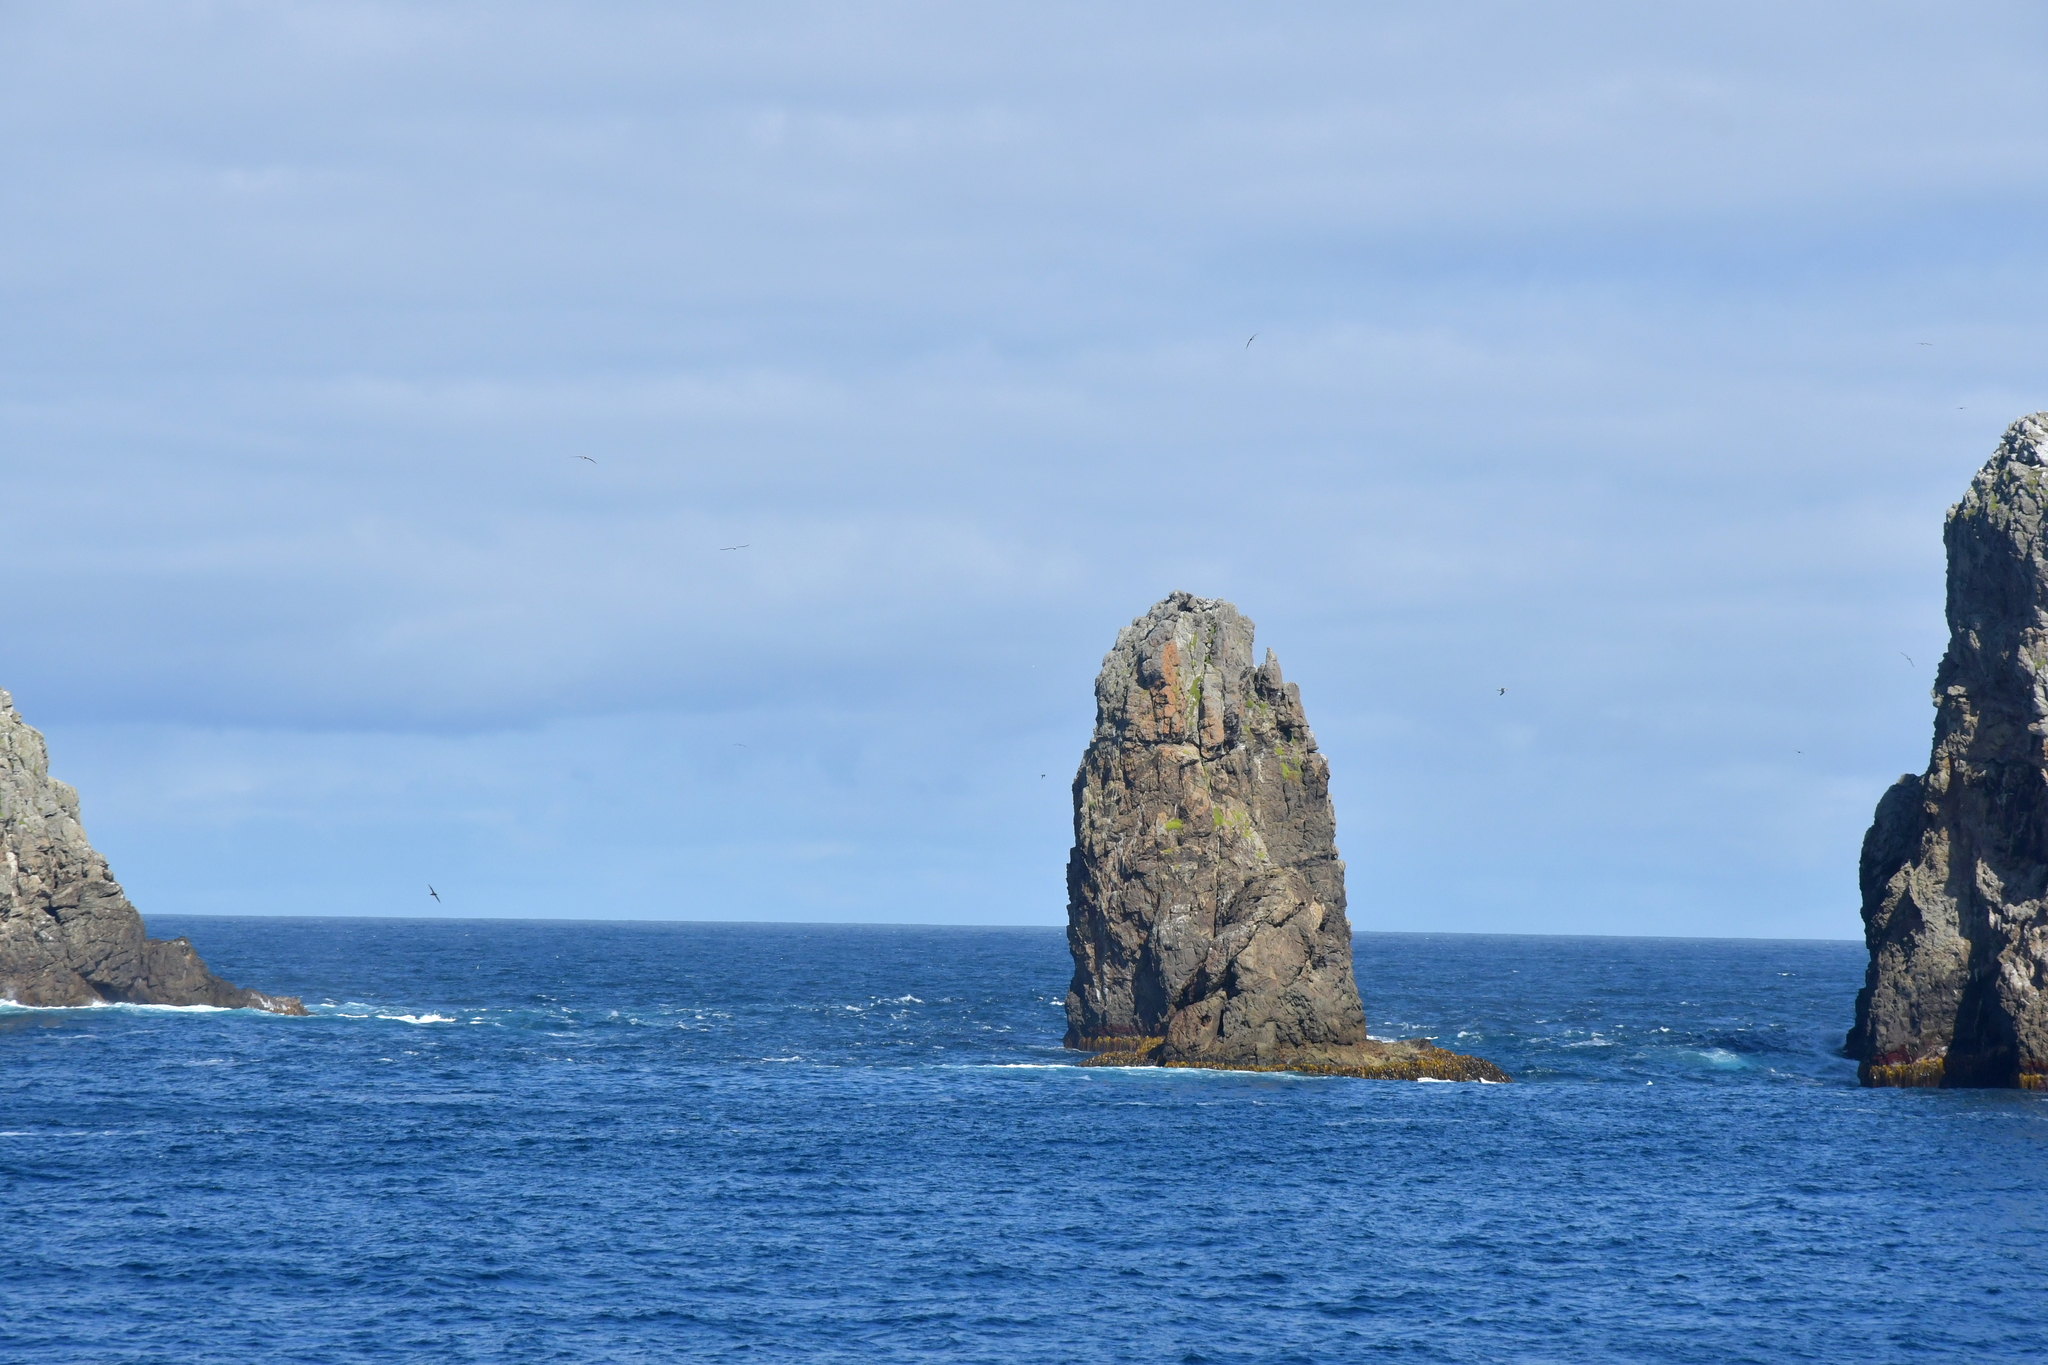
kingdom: Animalia
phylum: Chordata
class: Aves
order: Procellariiformes
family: Diomedeidae
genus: Thalassarche
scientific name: Thalassarche bulleri
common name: Buller's albatross
